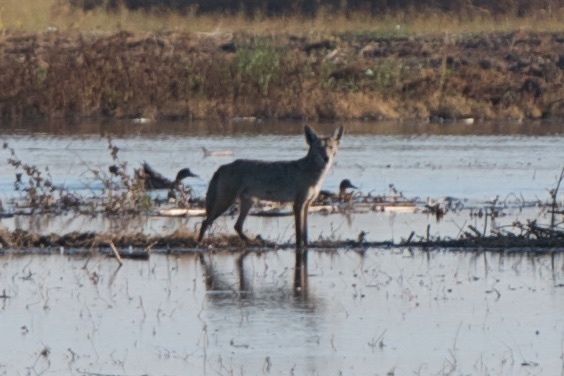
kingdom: Animalia
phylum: Chordata
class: Mammalia
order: Carnivora
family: Canidae
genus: Canis
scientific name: Canis latrans
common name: Coyote
